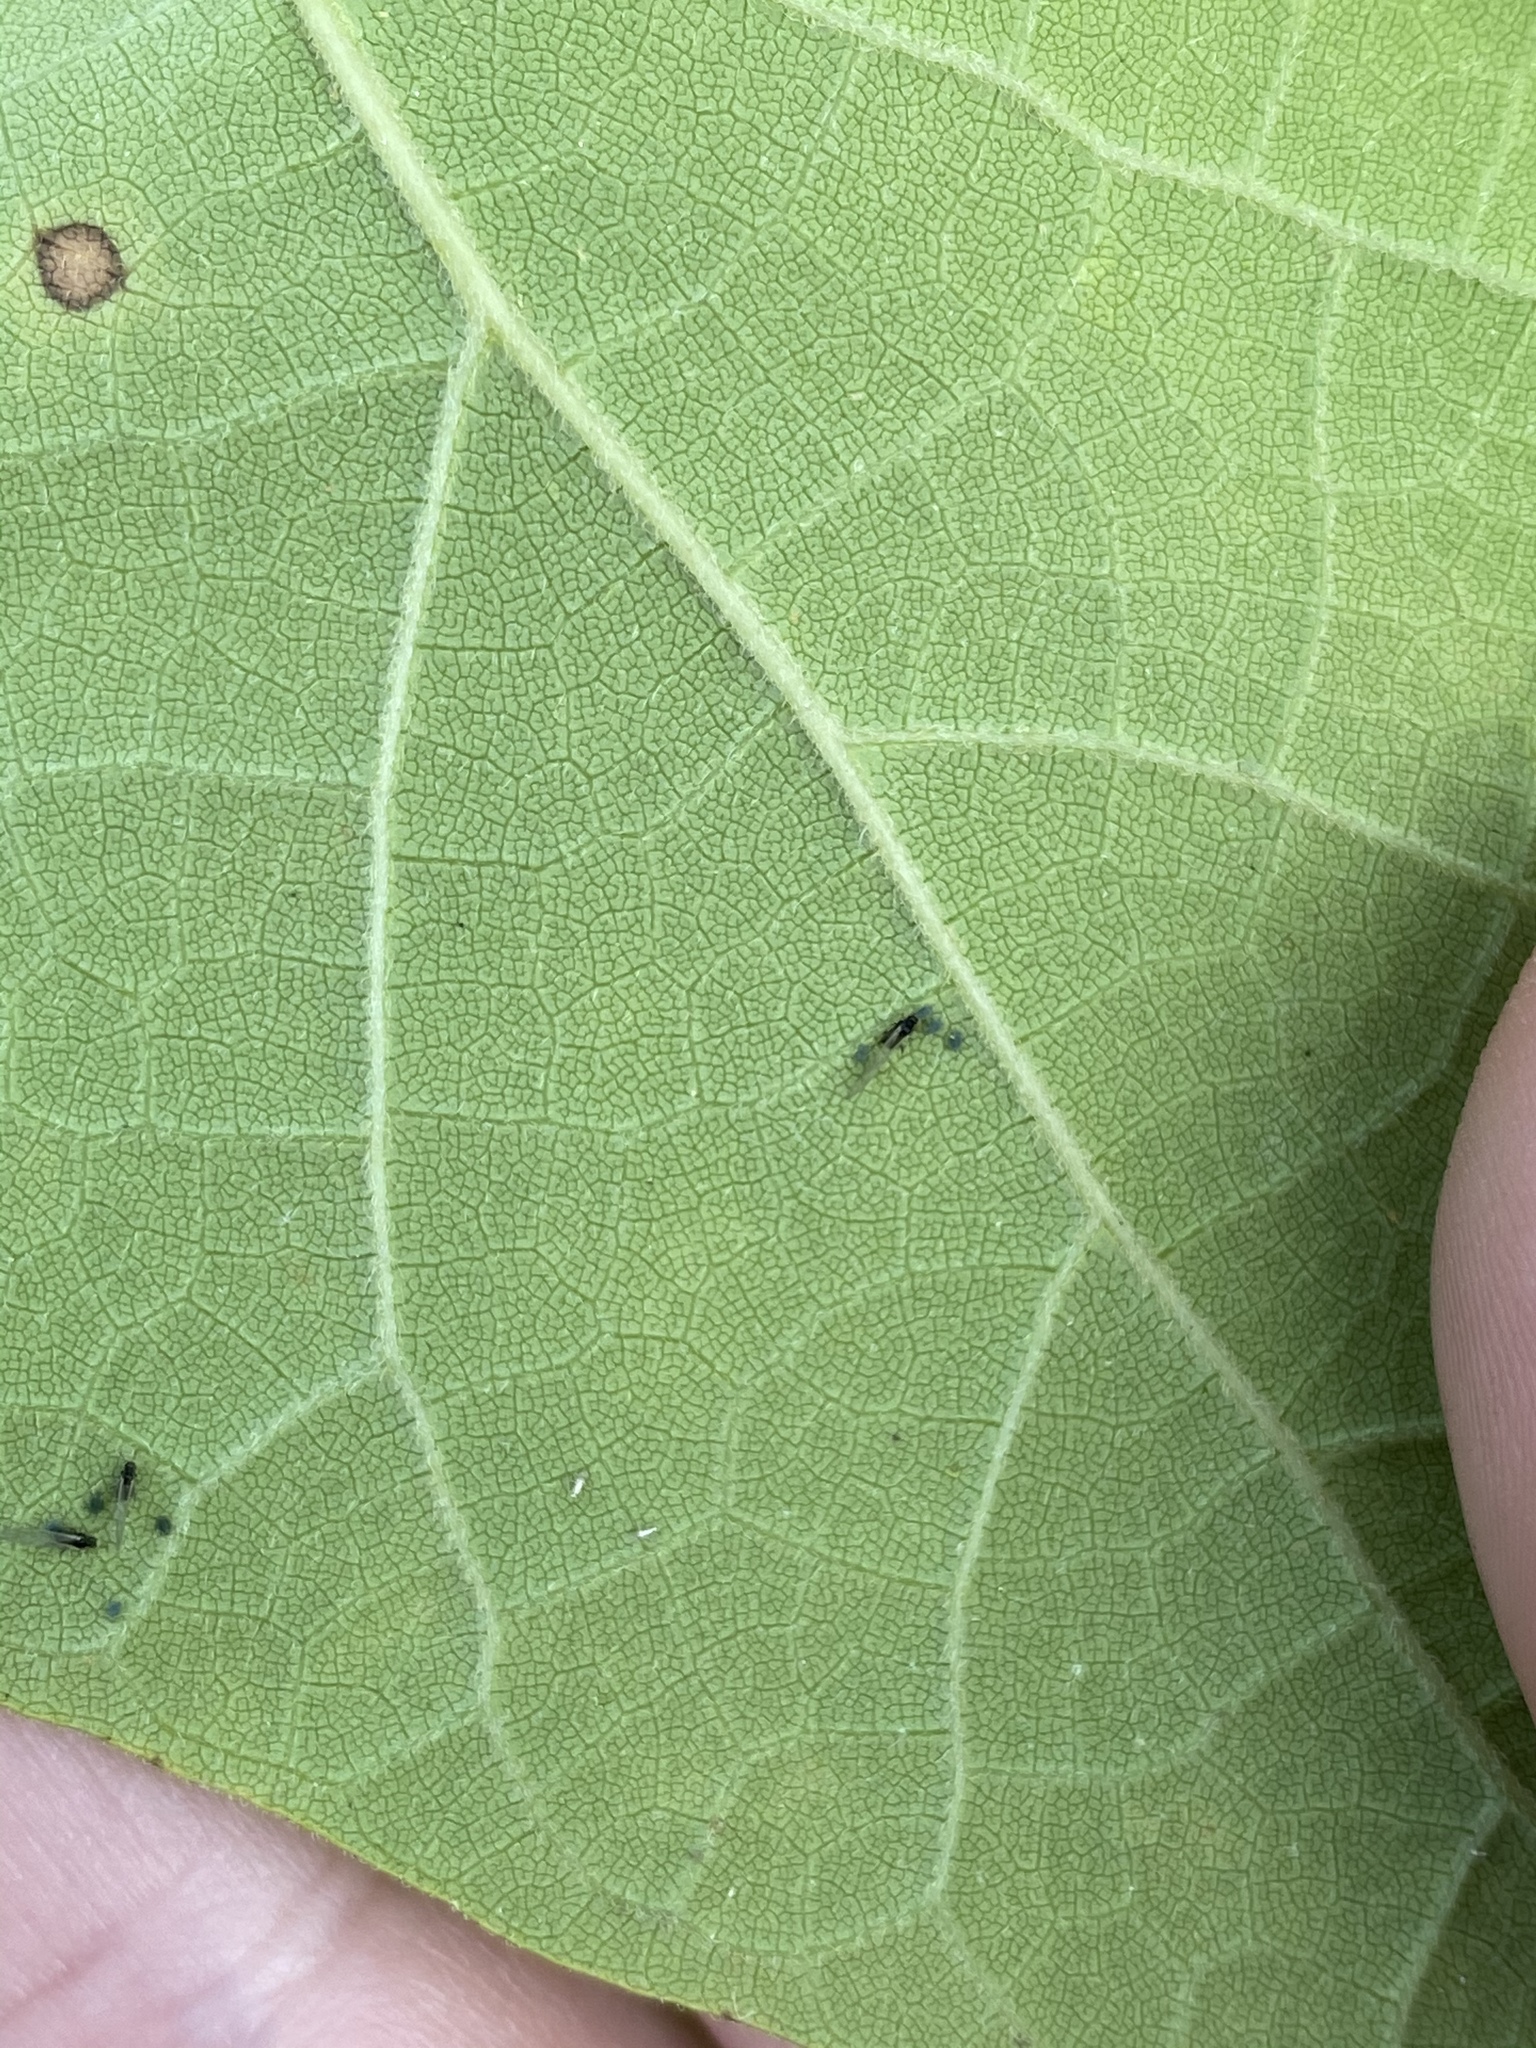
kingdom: Plantae
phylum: Tracheophyta
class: Magnoliopsida
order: Lamiales
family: Bignoniaceae
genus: Catalpa
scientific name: Catalpa speciosa
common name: Northern catalpa
